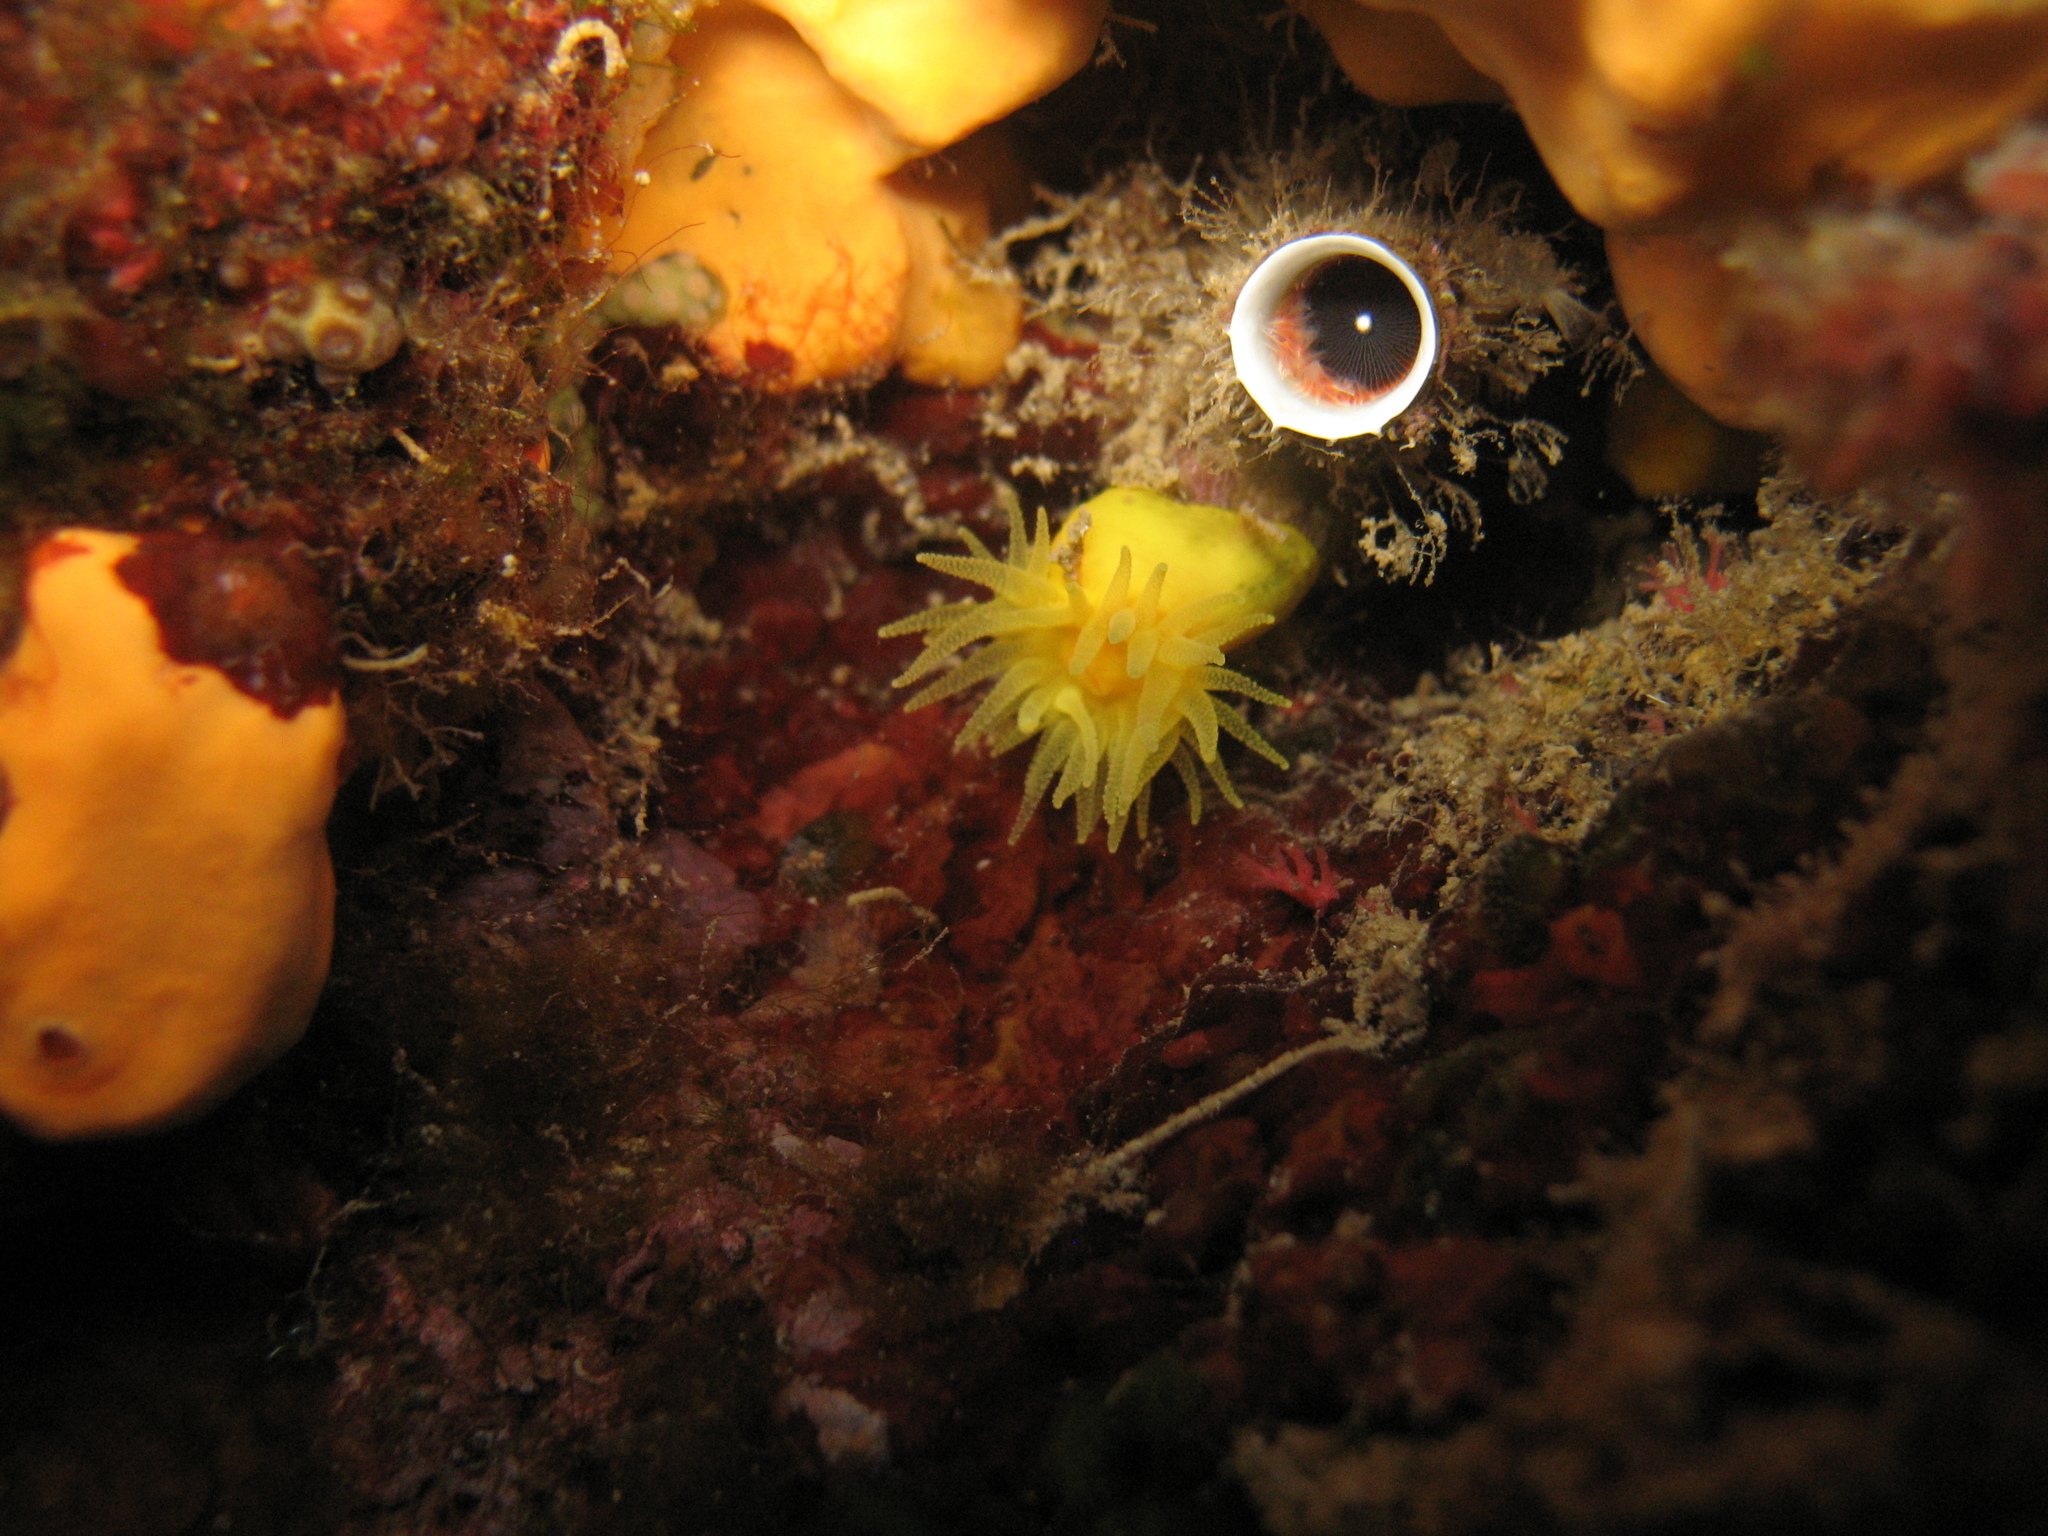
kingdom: Animalia
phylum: Cnidaria
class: Anthozoa
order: Scleractinia
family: Dendrophylliidae
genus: Leptopsammia
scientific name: Leptopsammia pruvoti
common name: Sunset cup coral
